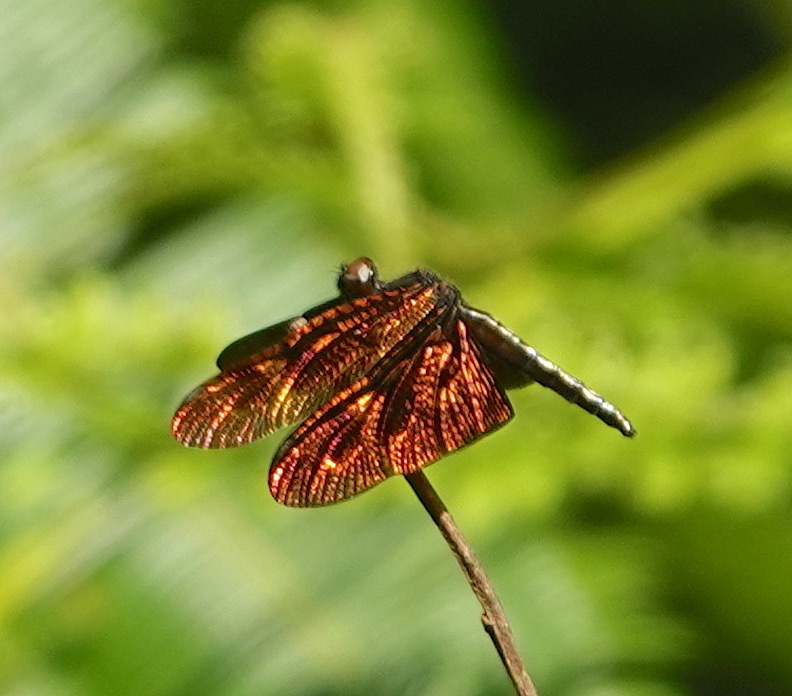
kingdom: Animalia
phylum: Arthropoda
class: Insecta
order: Odonata
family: Libellulidae
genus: Rhyothemis
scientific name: Rhyothemis fulgens
